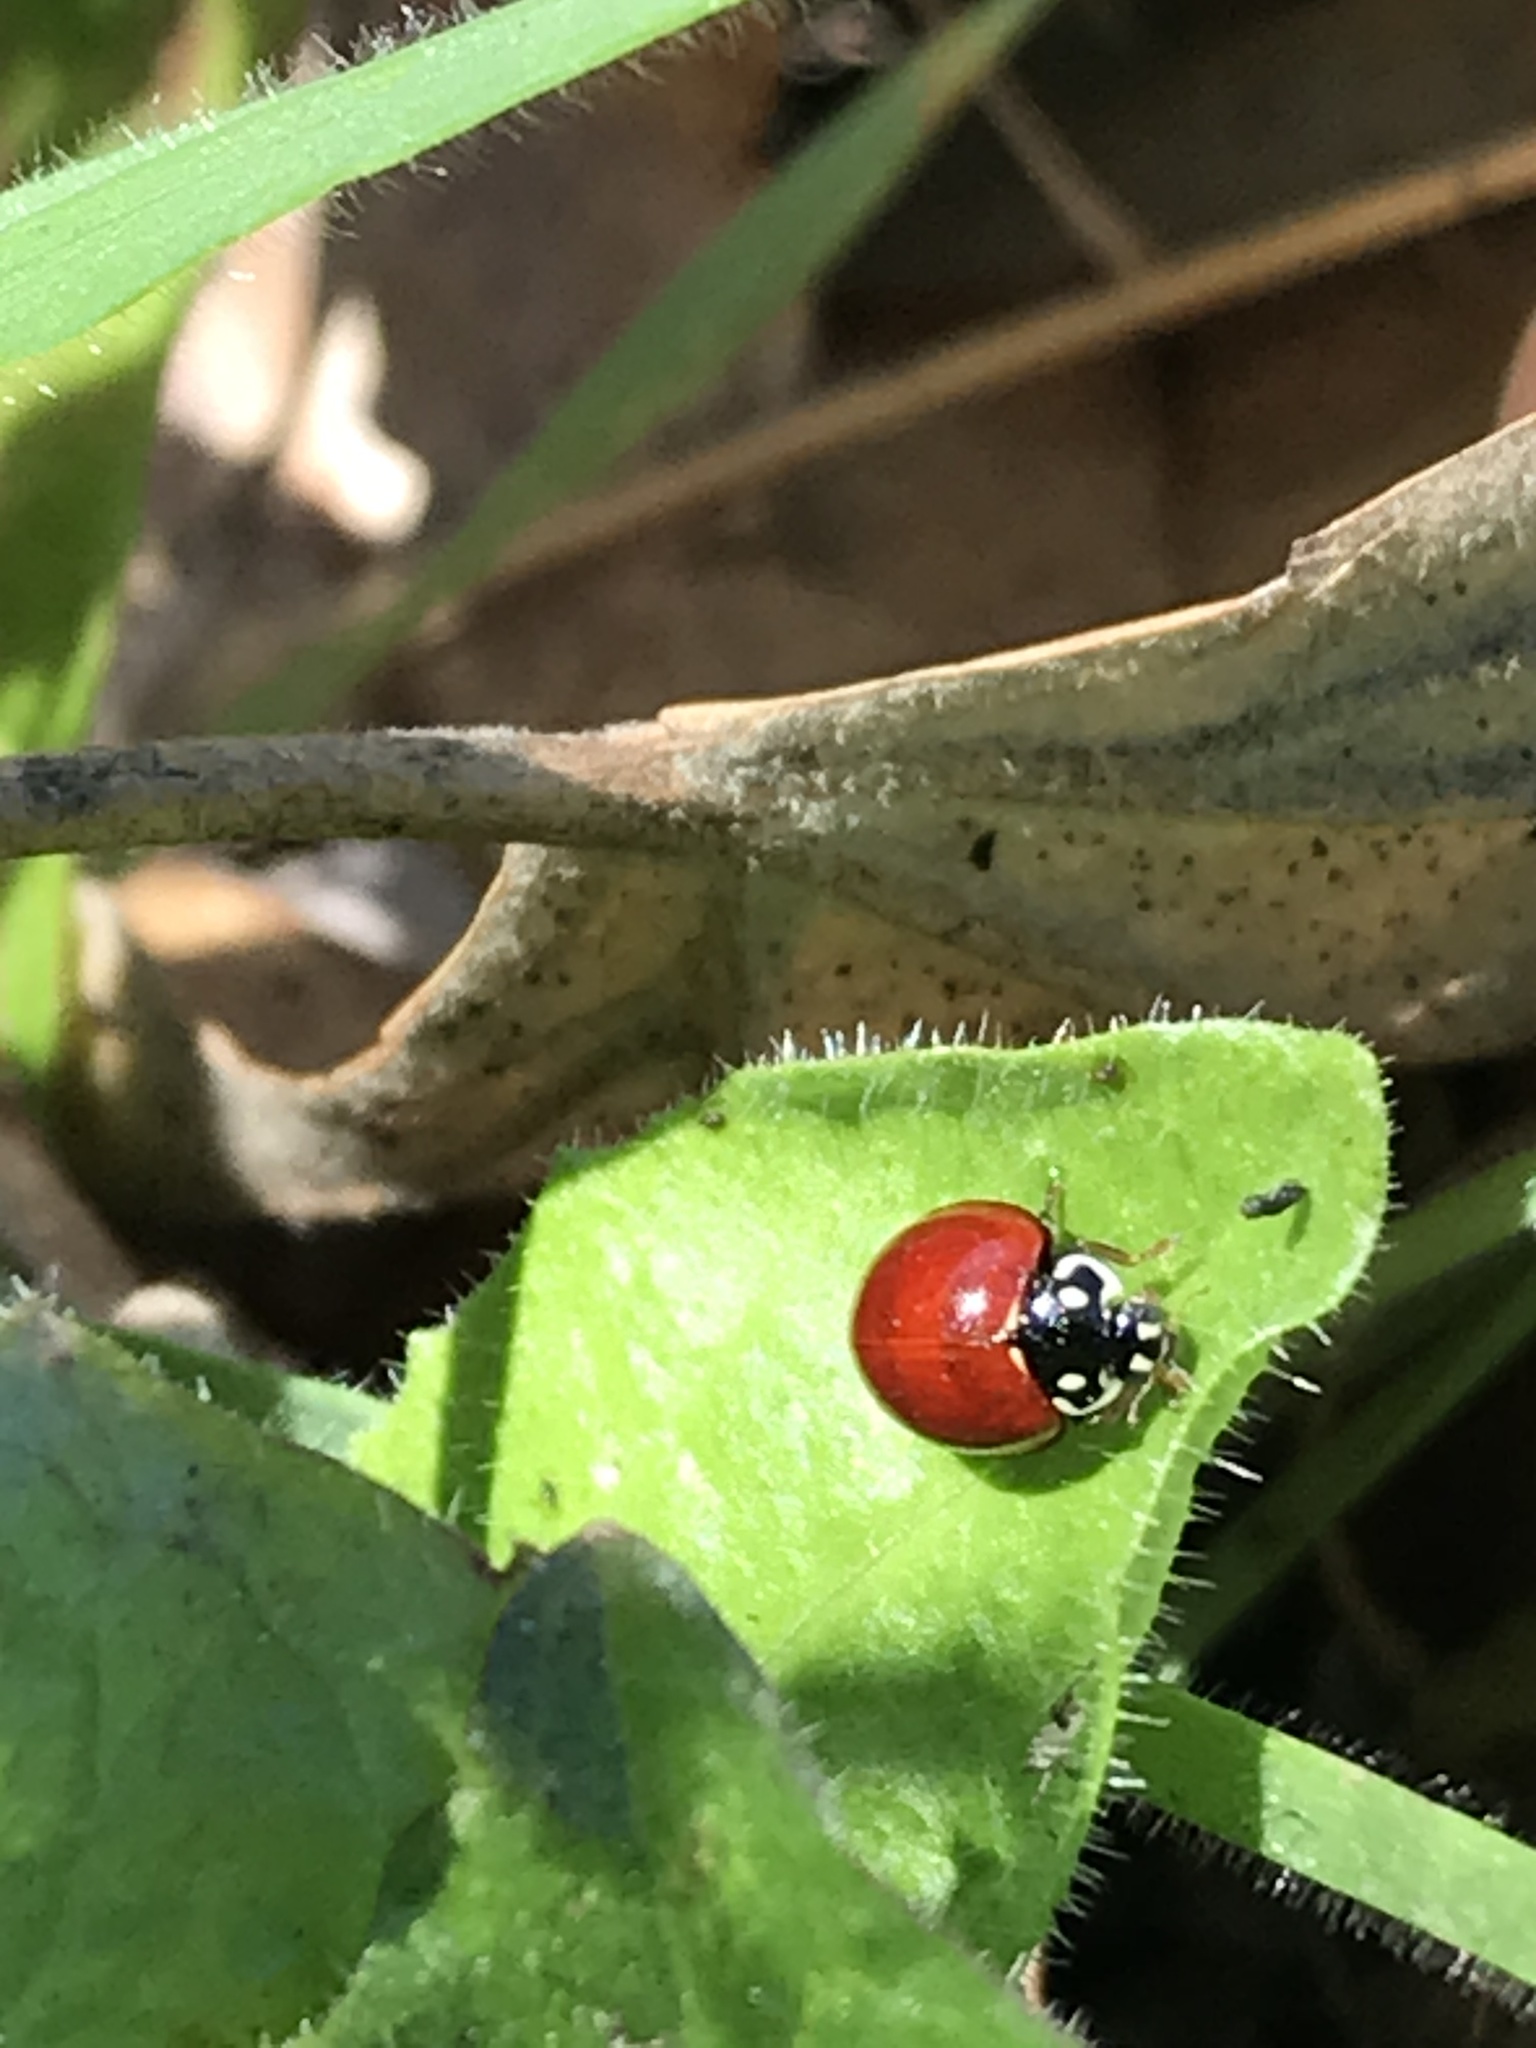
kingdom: Animalia
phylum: Arthropoda
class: Insecta
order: Coleoptera
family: Coccinellidae
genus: Cycloneda
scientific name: Cycloneda sanguinea
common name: Ladybird beetle
